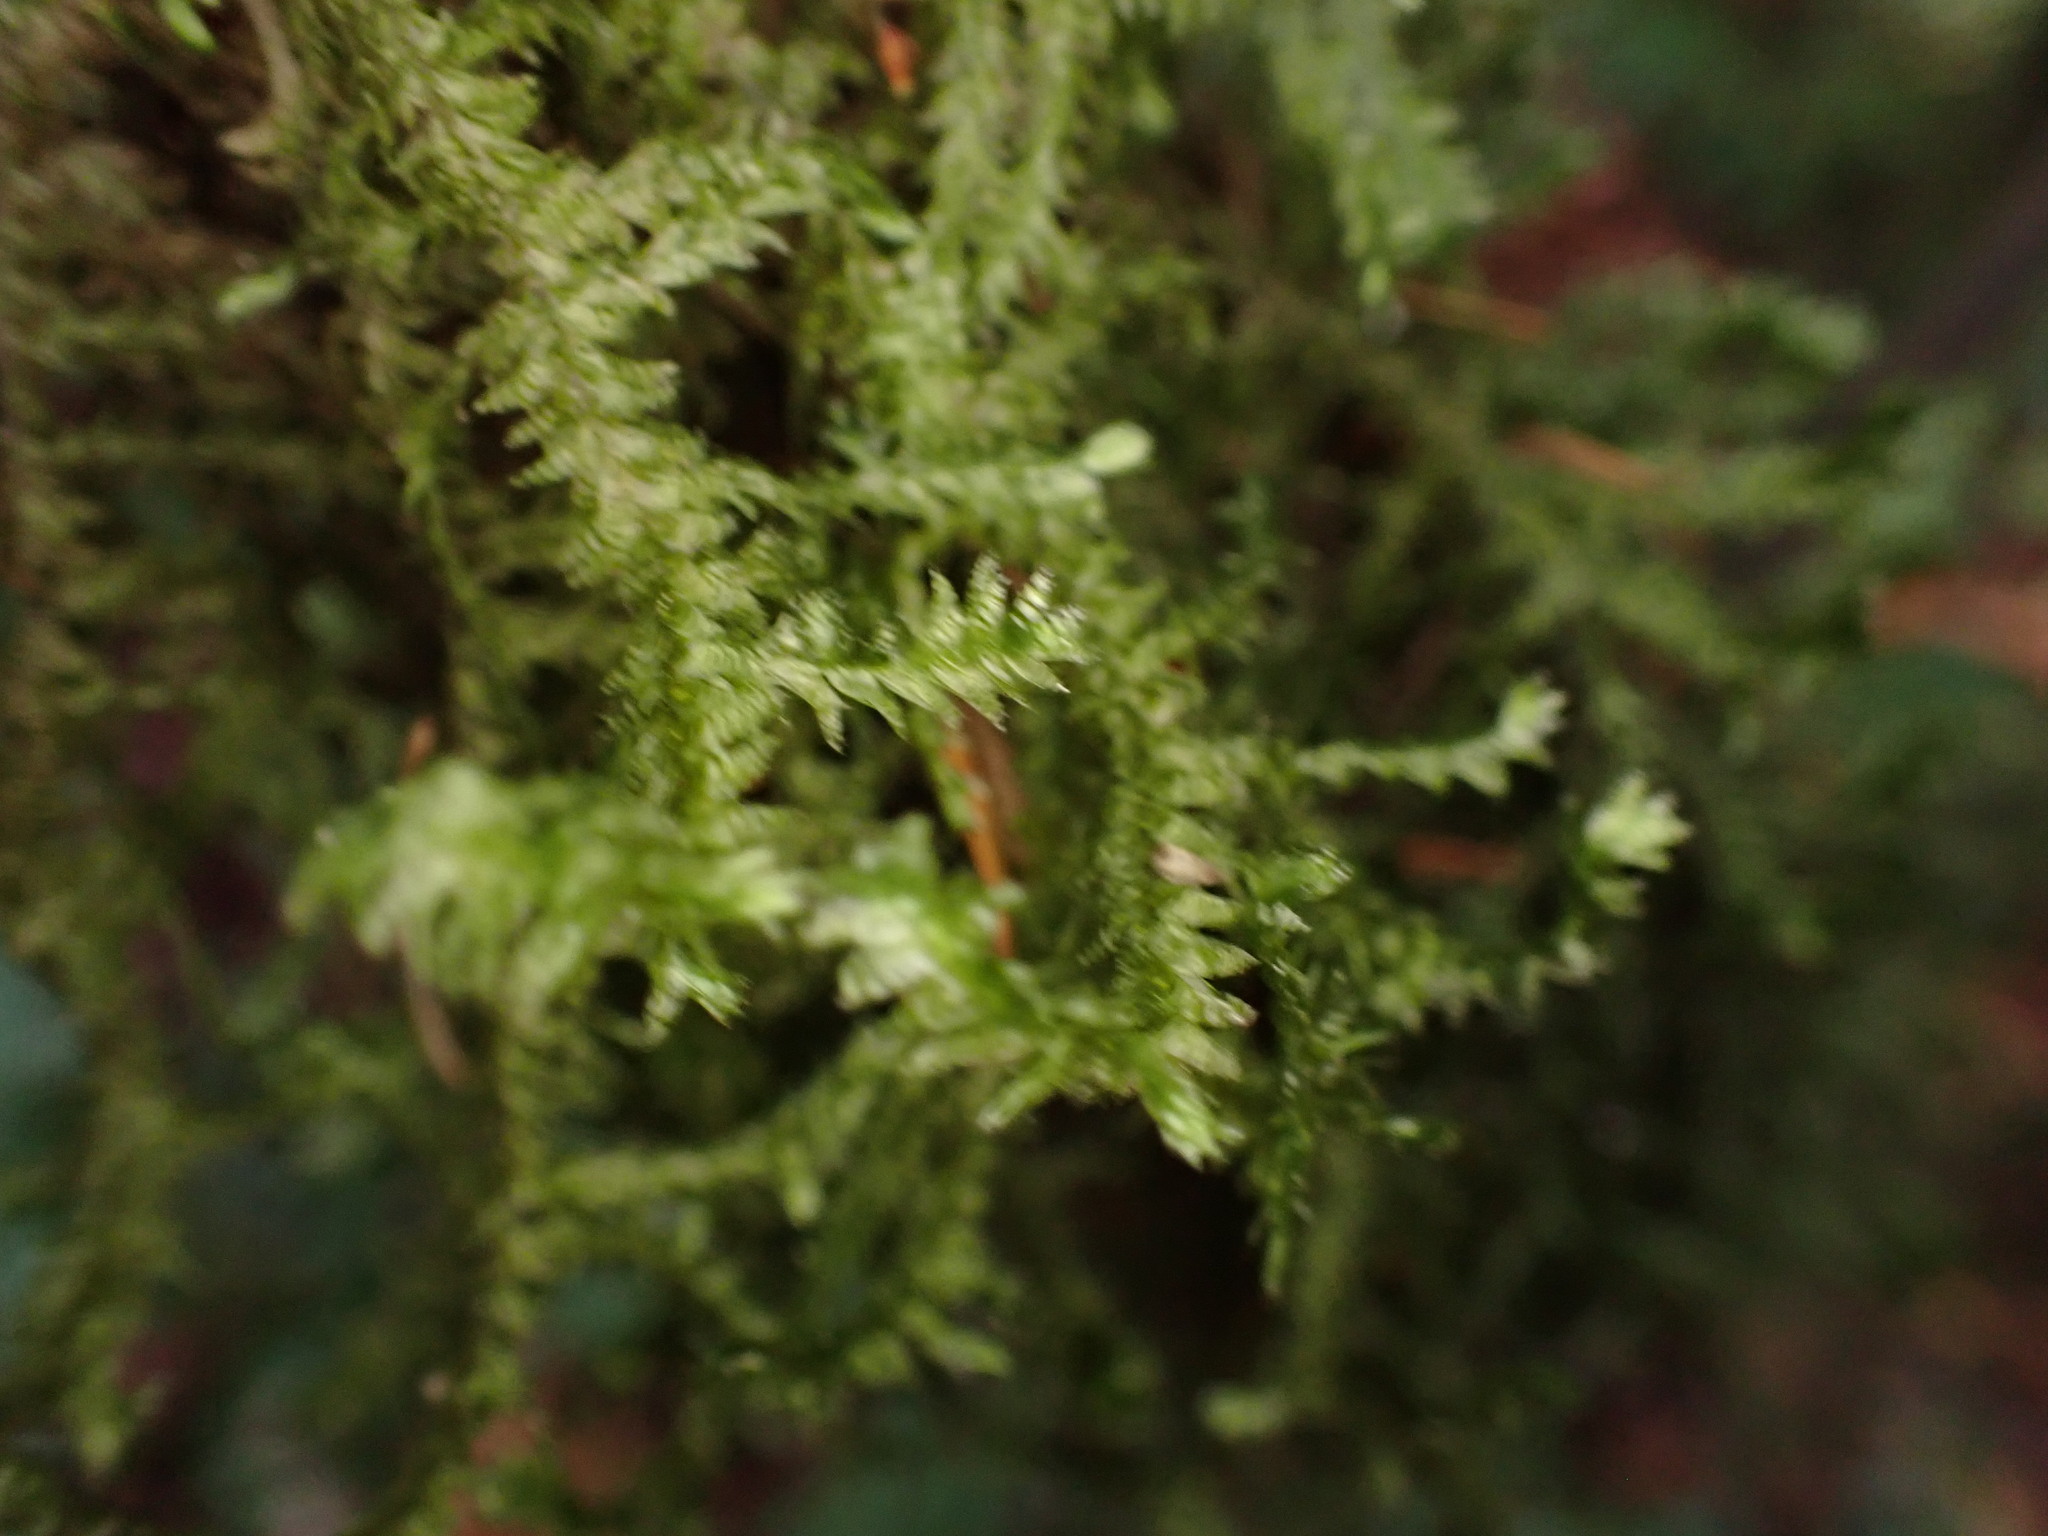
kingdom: Plantae
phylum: Bryophyta
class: Bryopsida
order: Hypnales
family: Neckeraceae
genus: Neckera
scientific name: Neckera douglasii
